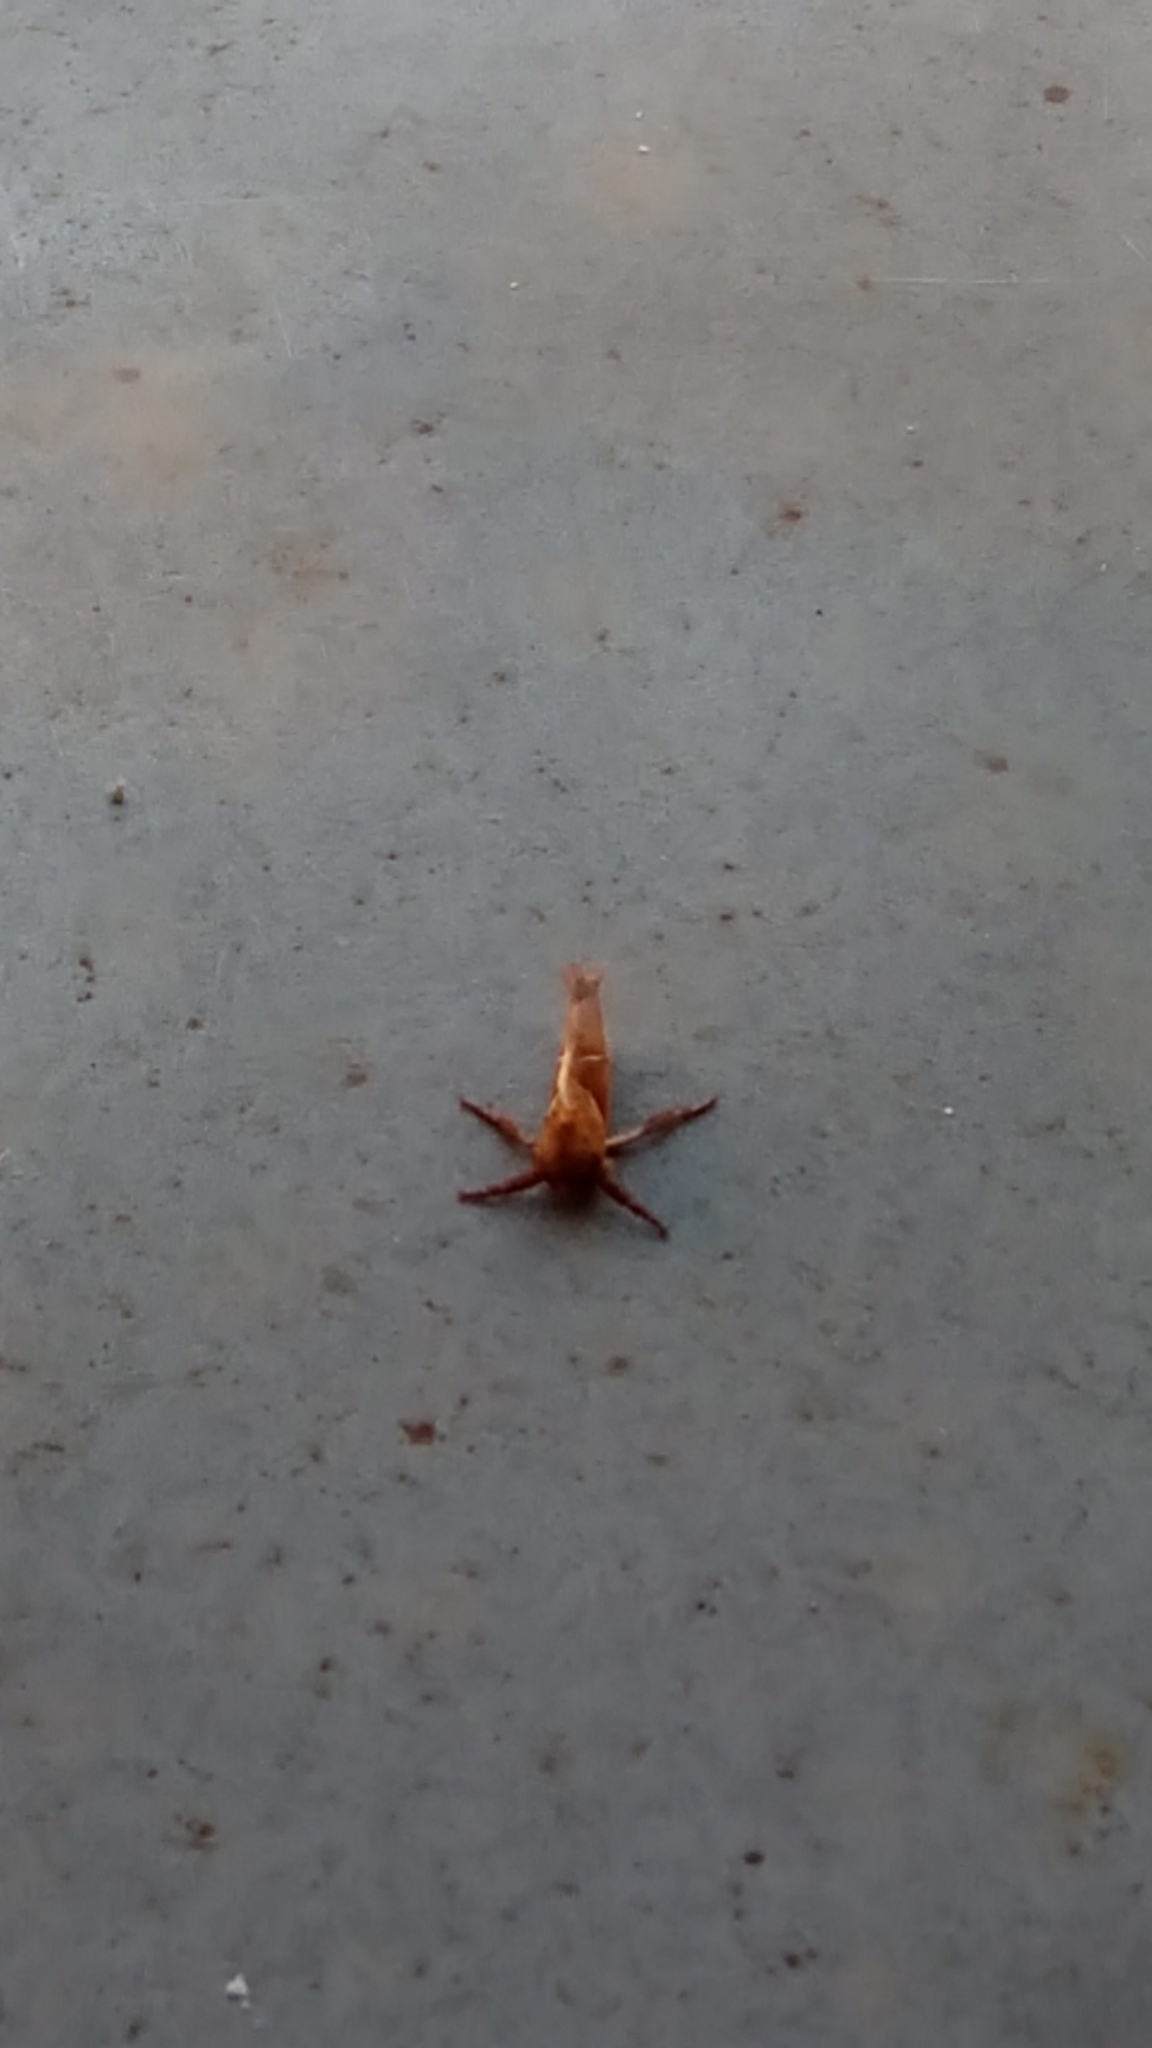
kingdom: Animalia
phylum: Arthropoda
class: Insecta
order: Lepidoptera
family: Hepialidae
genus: Triodia
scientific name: Triodia sylvina
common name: Orange swift
